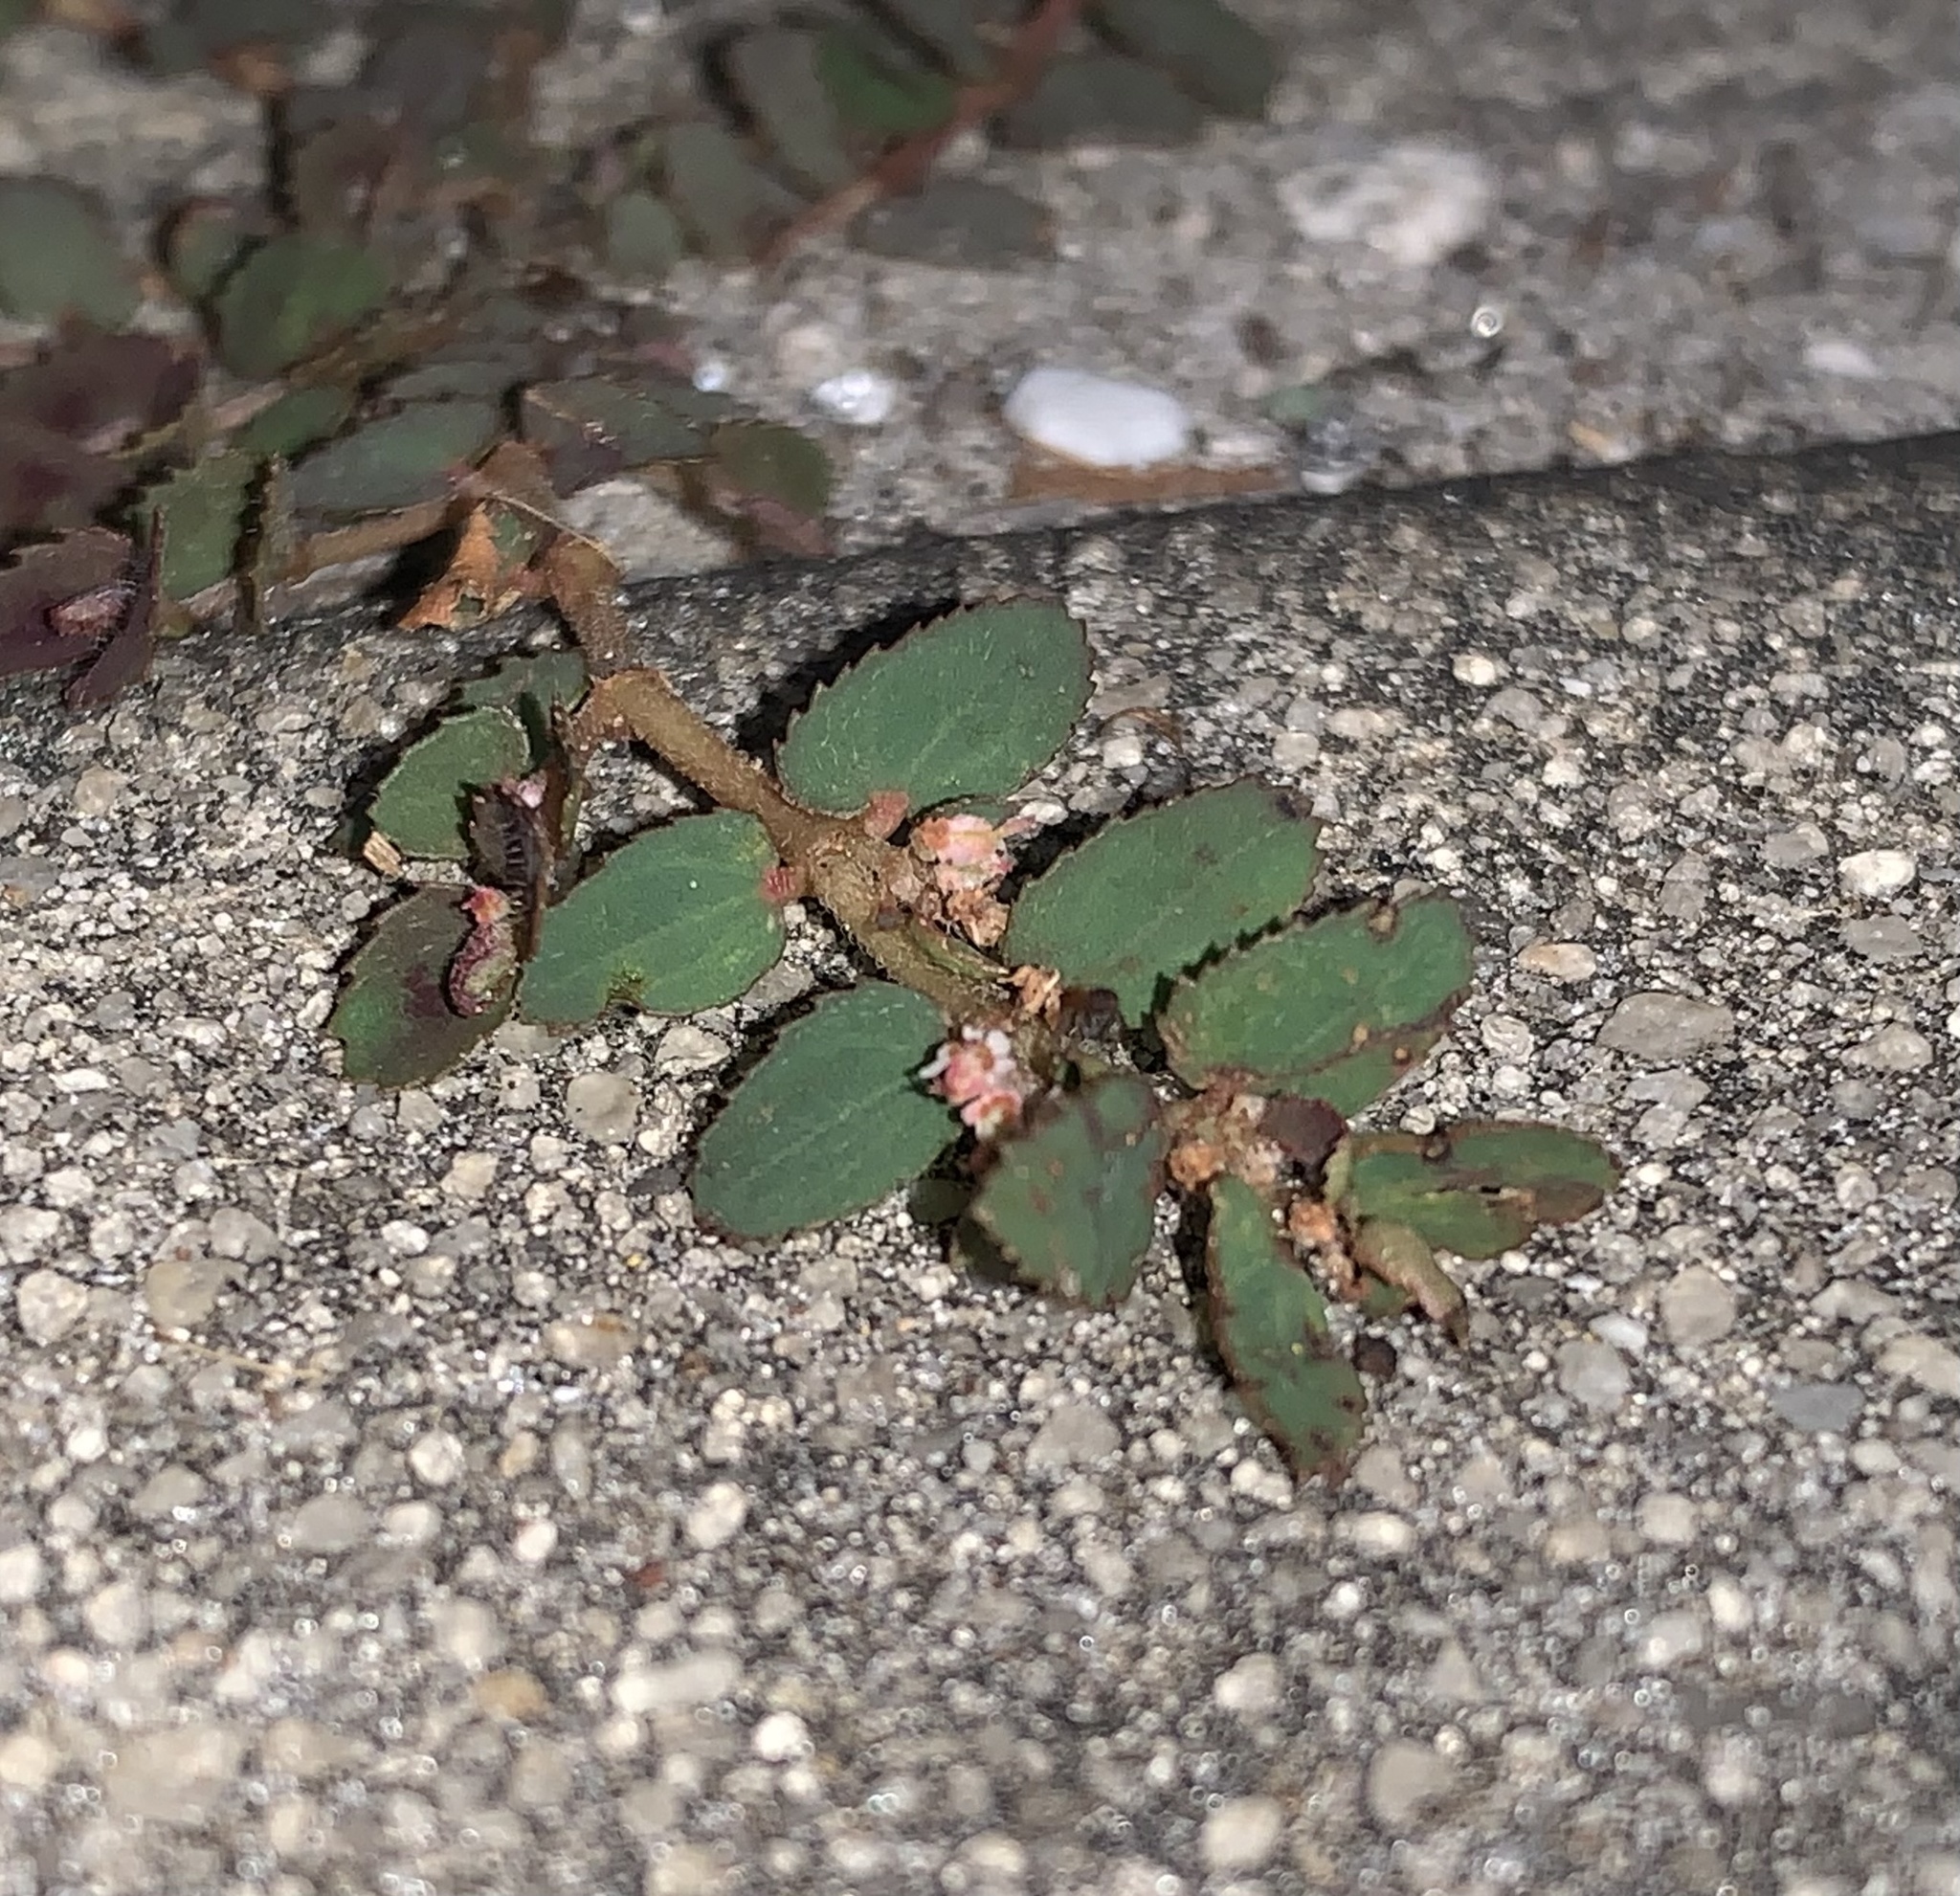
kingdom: Plantae
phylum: Tracheophyta
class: Magnoliopsida
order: Malpighiales
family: Euphorbiaceae
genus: Euphorbia
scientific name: Euphorbia thymifolia
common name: Gulf sandmat
